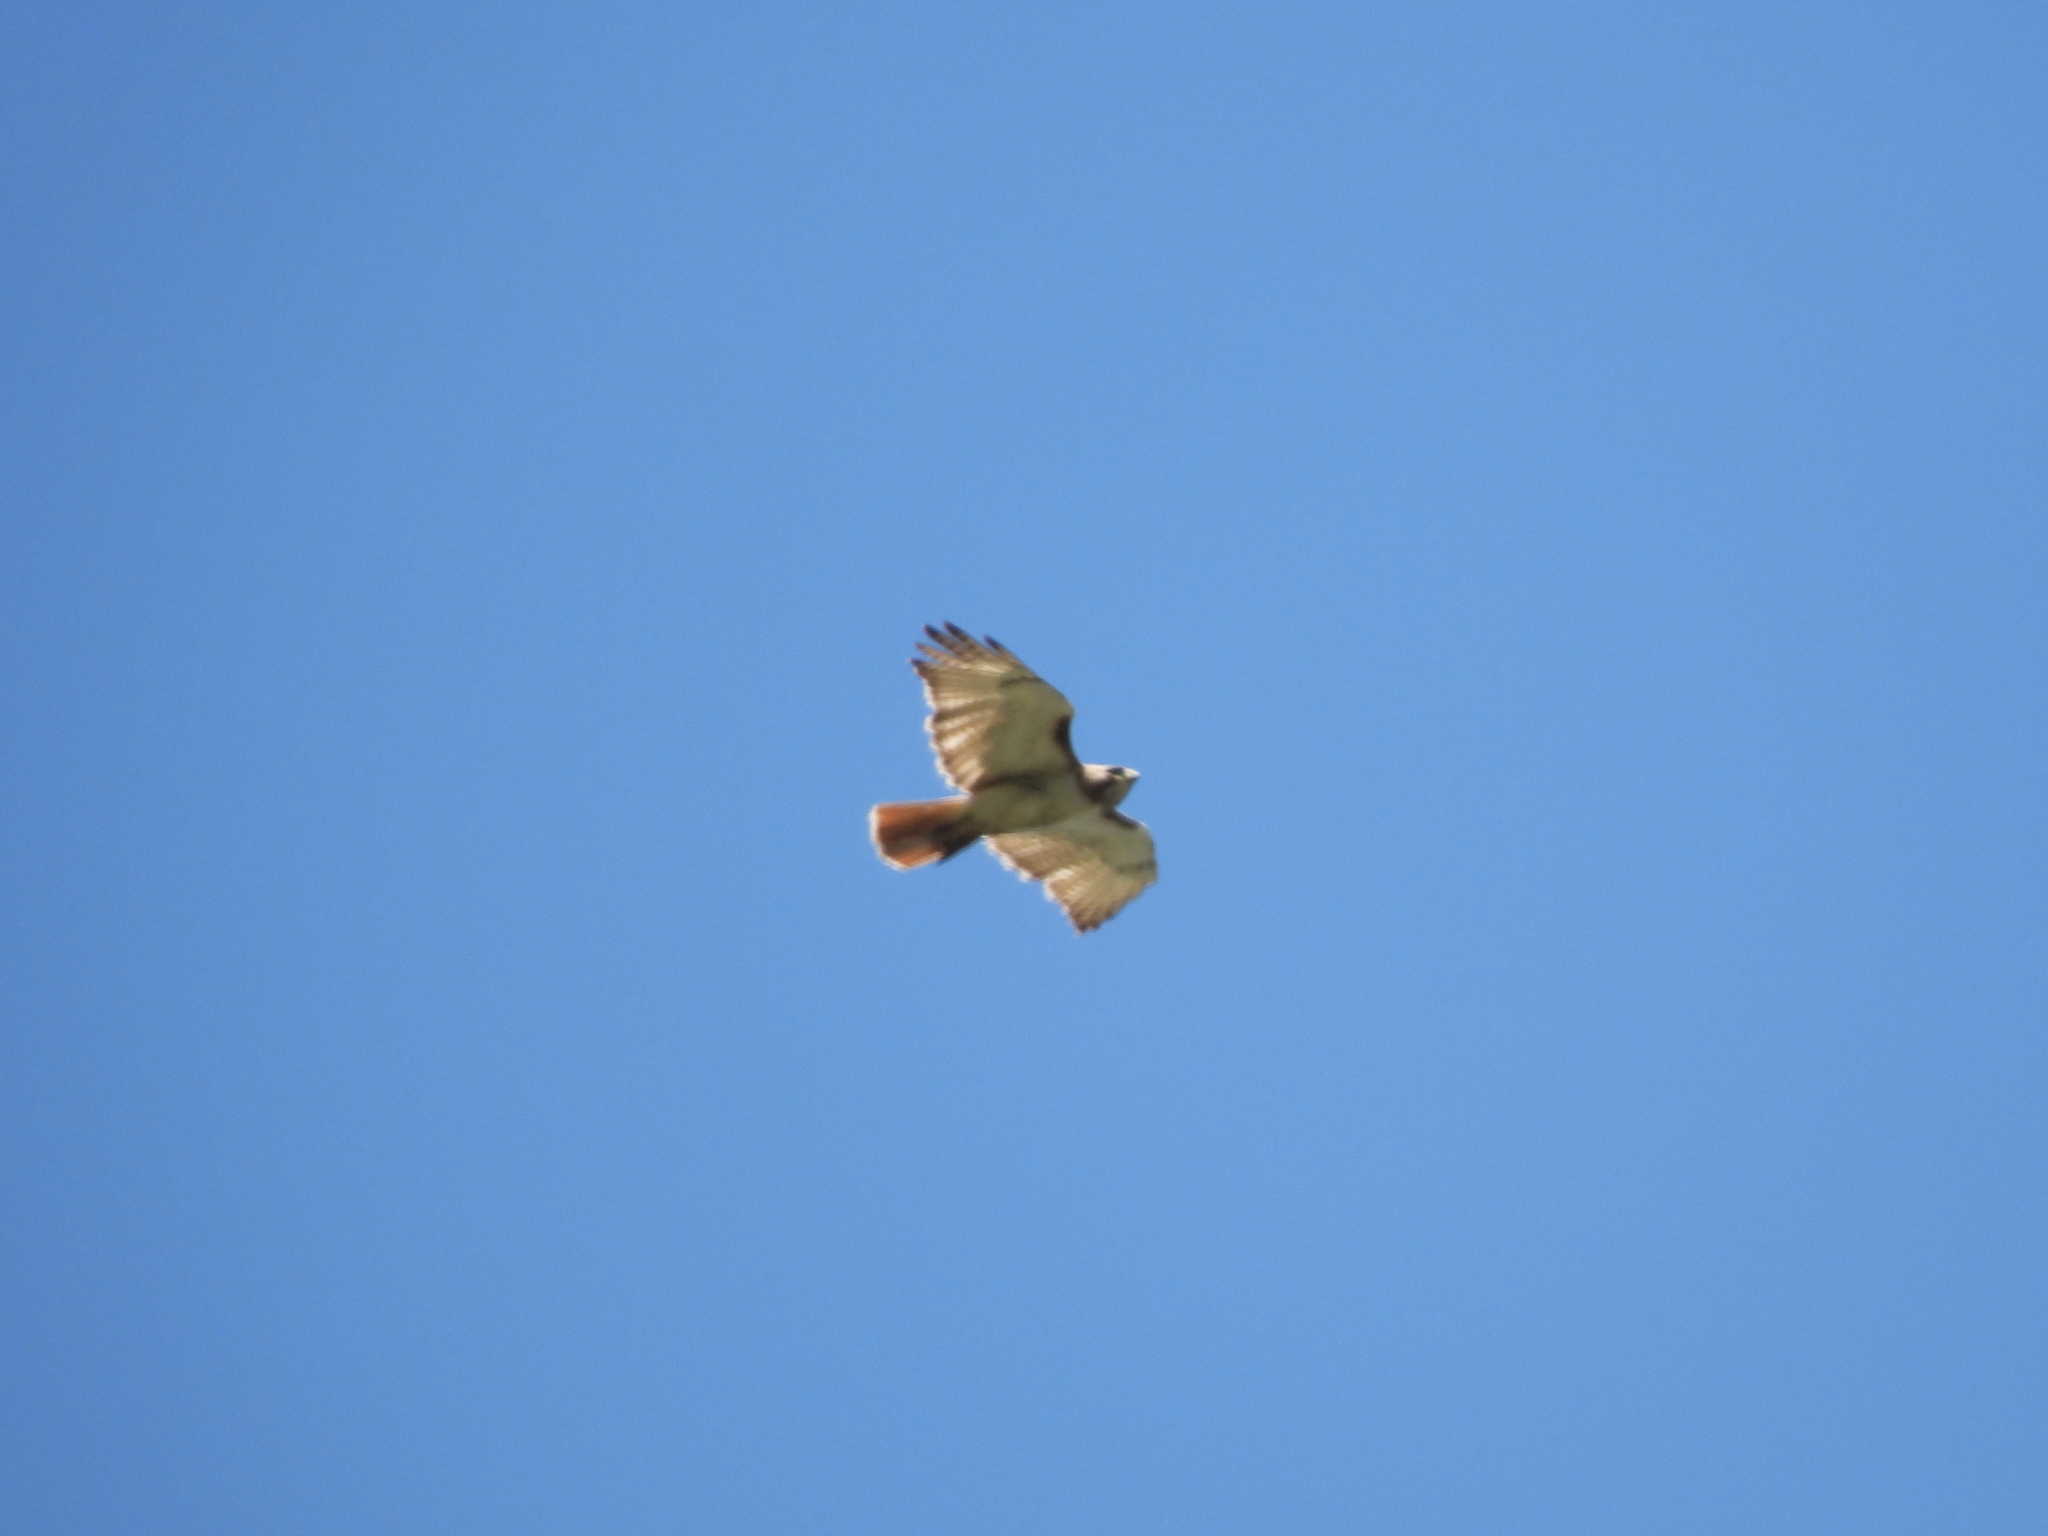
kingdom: Animalia
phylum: Chordata
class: Aves
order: Accipitriformes
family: Accipitridae
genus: Buteo
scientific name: Buteo jamaicensis
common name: Red-tailed hawk
